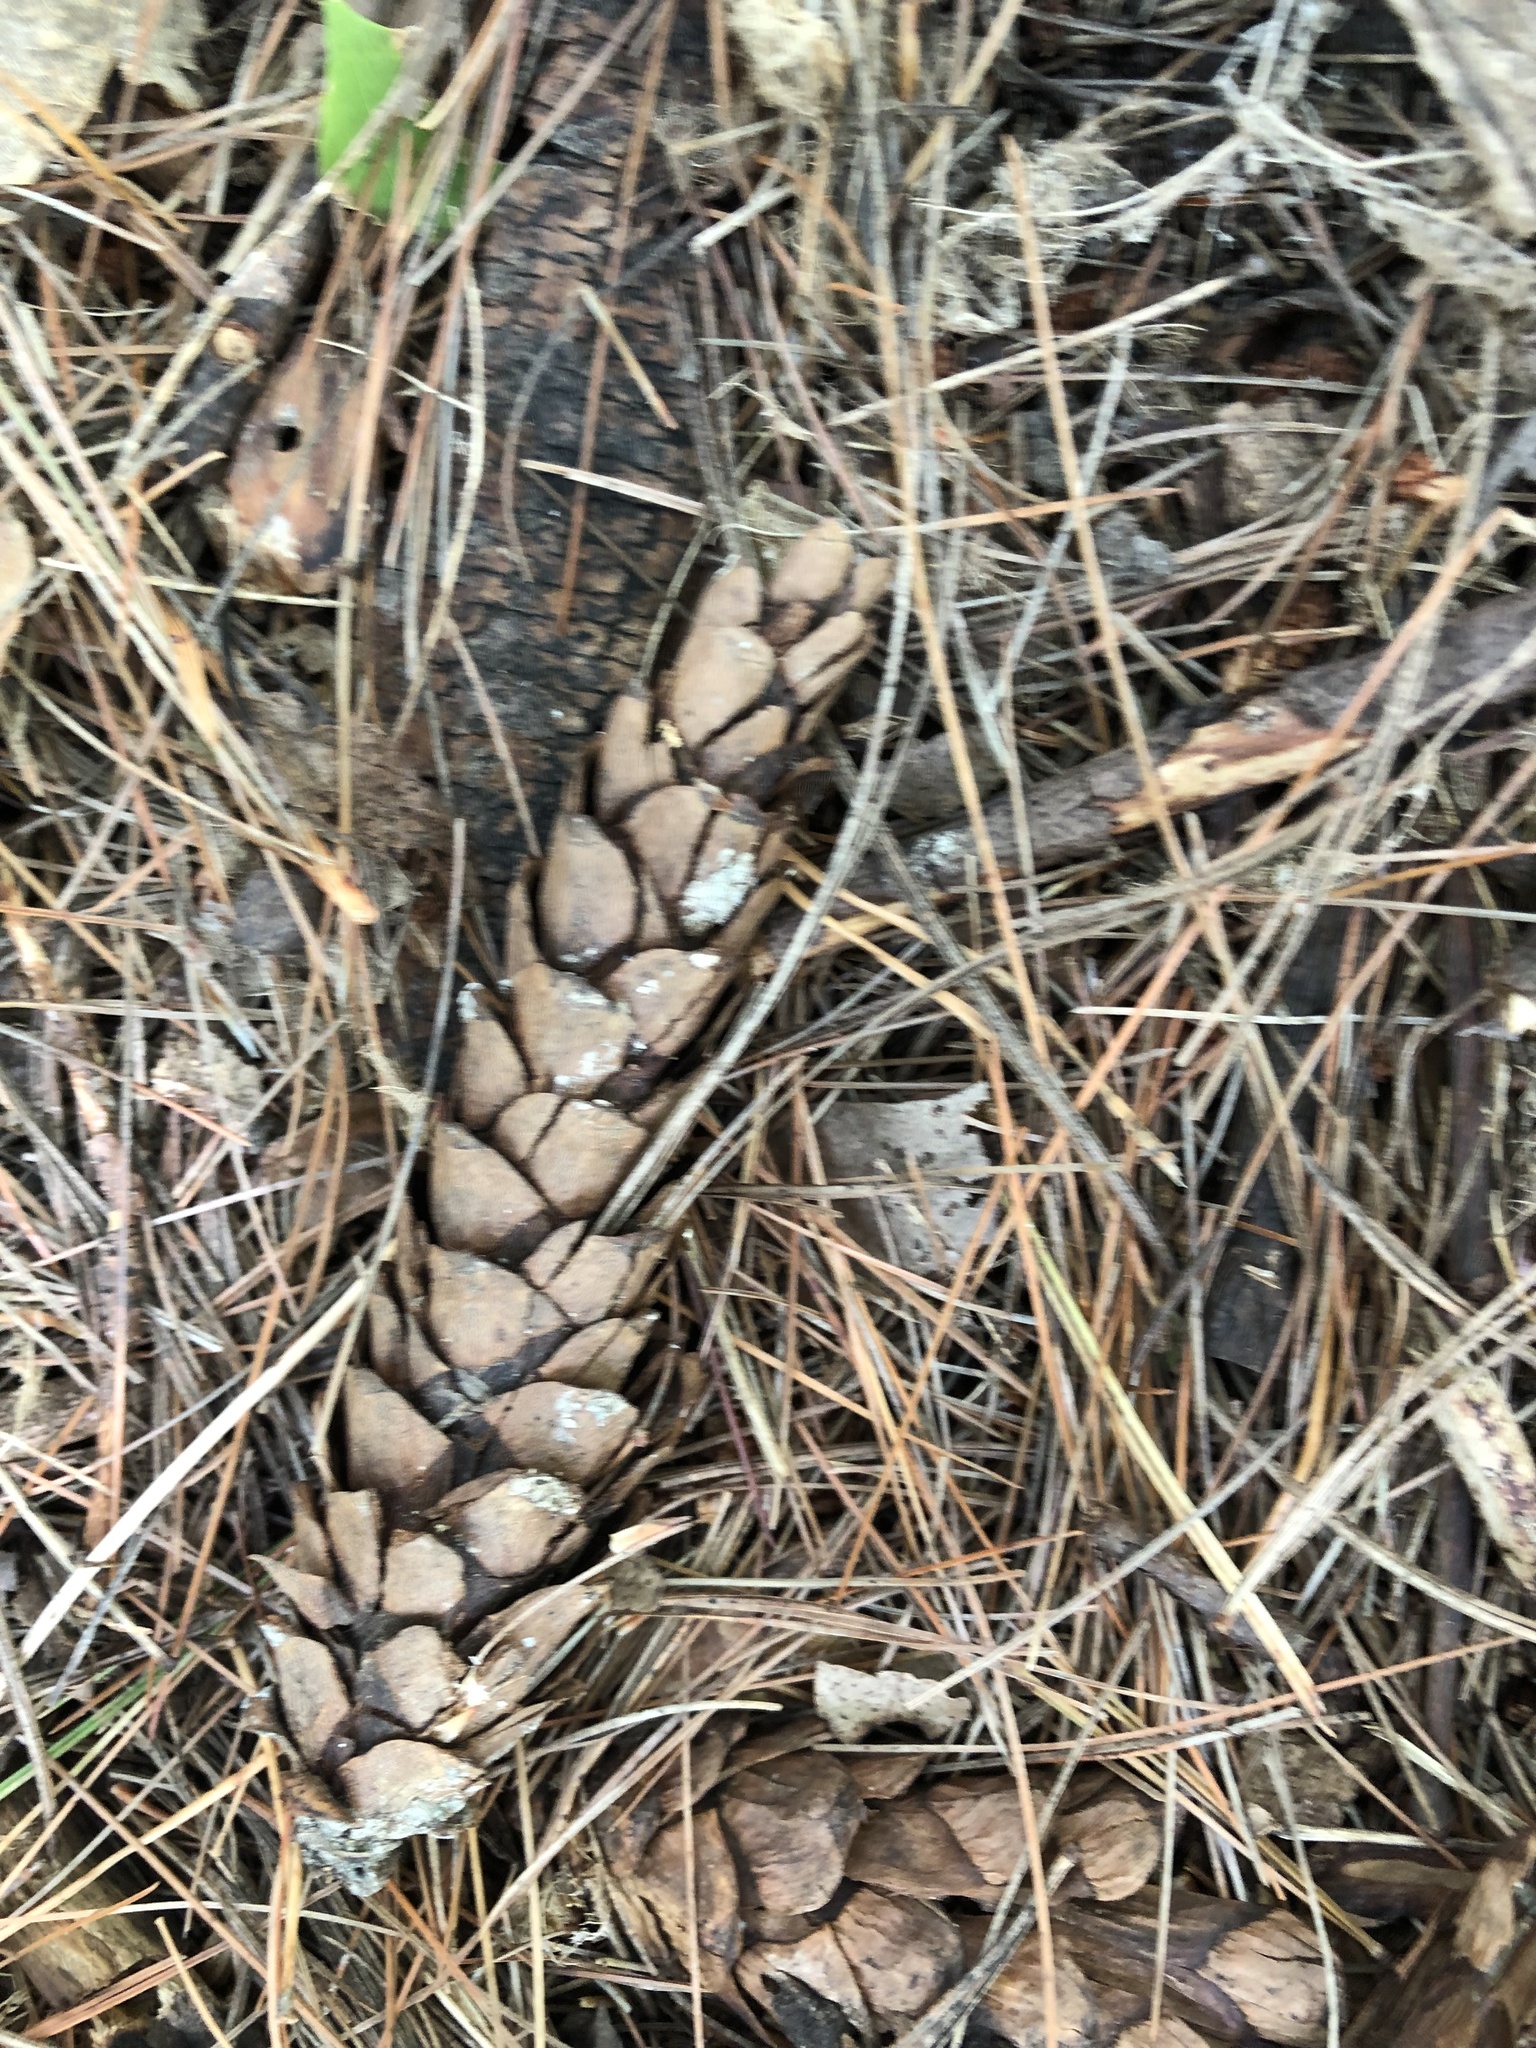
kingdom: Plantae
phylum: Tracheophyta
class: Pinopsida
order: Pinales
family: Pinaceae
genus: Pinus
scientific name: Pinus strobus
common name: Weymouth pine
